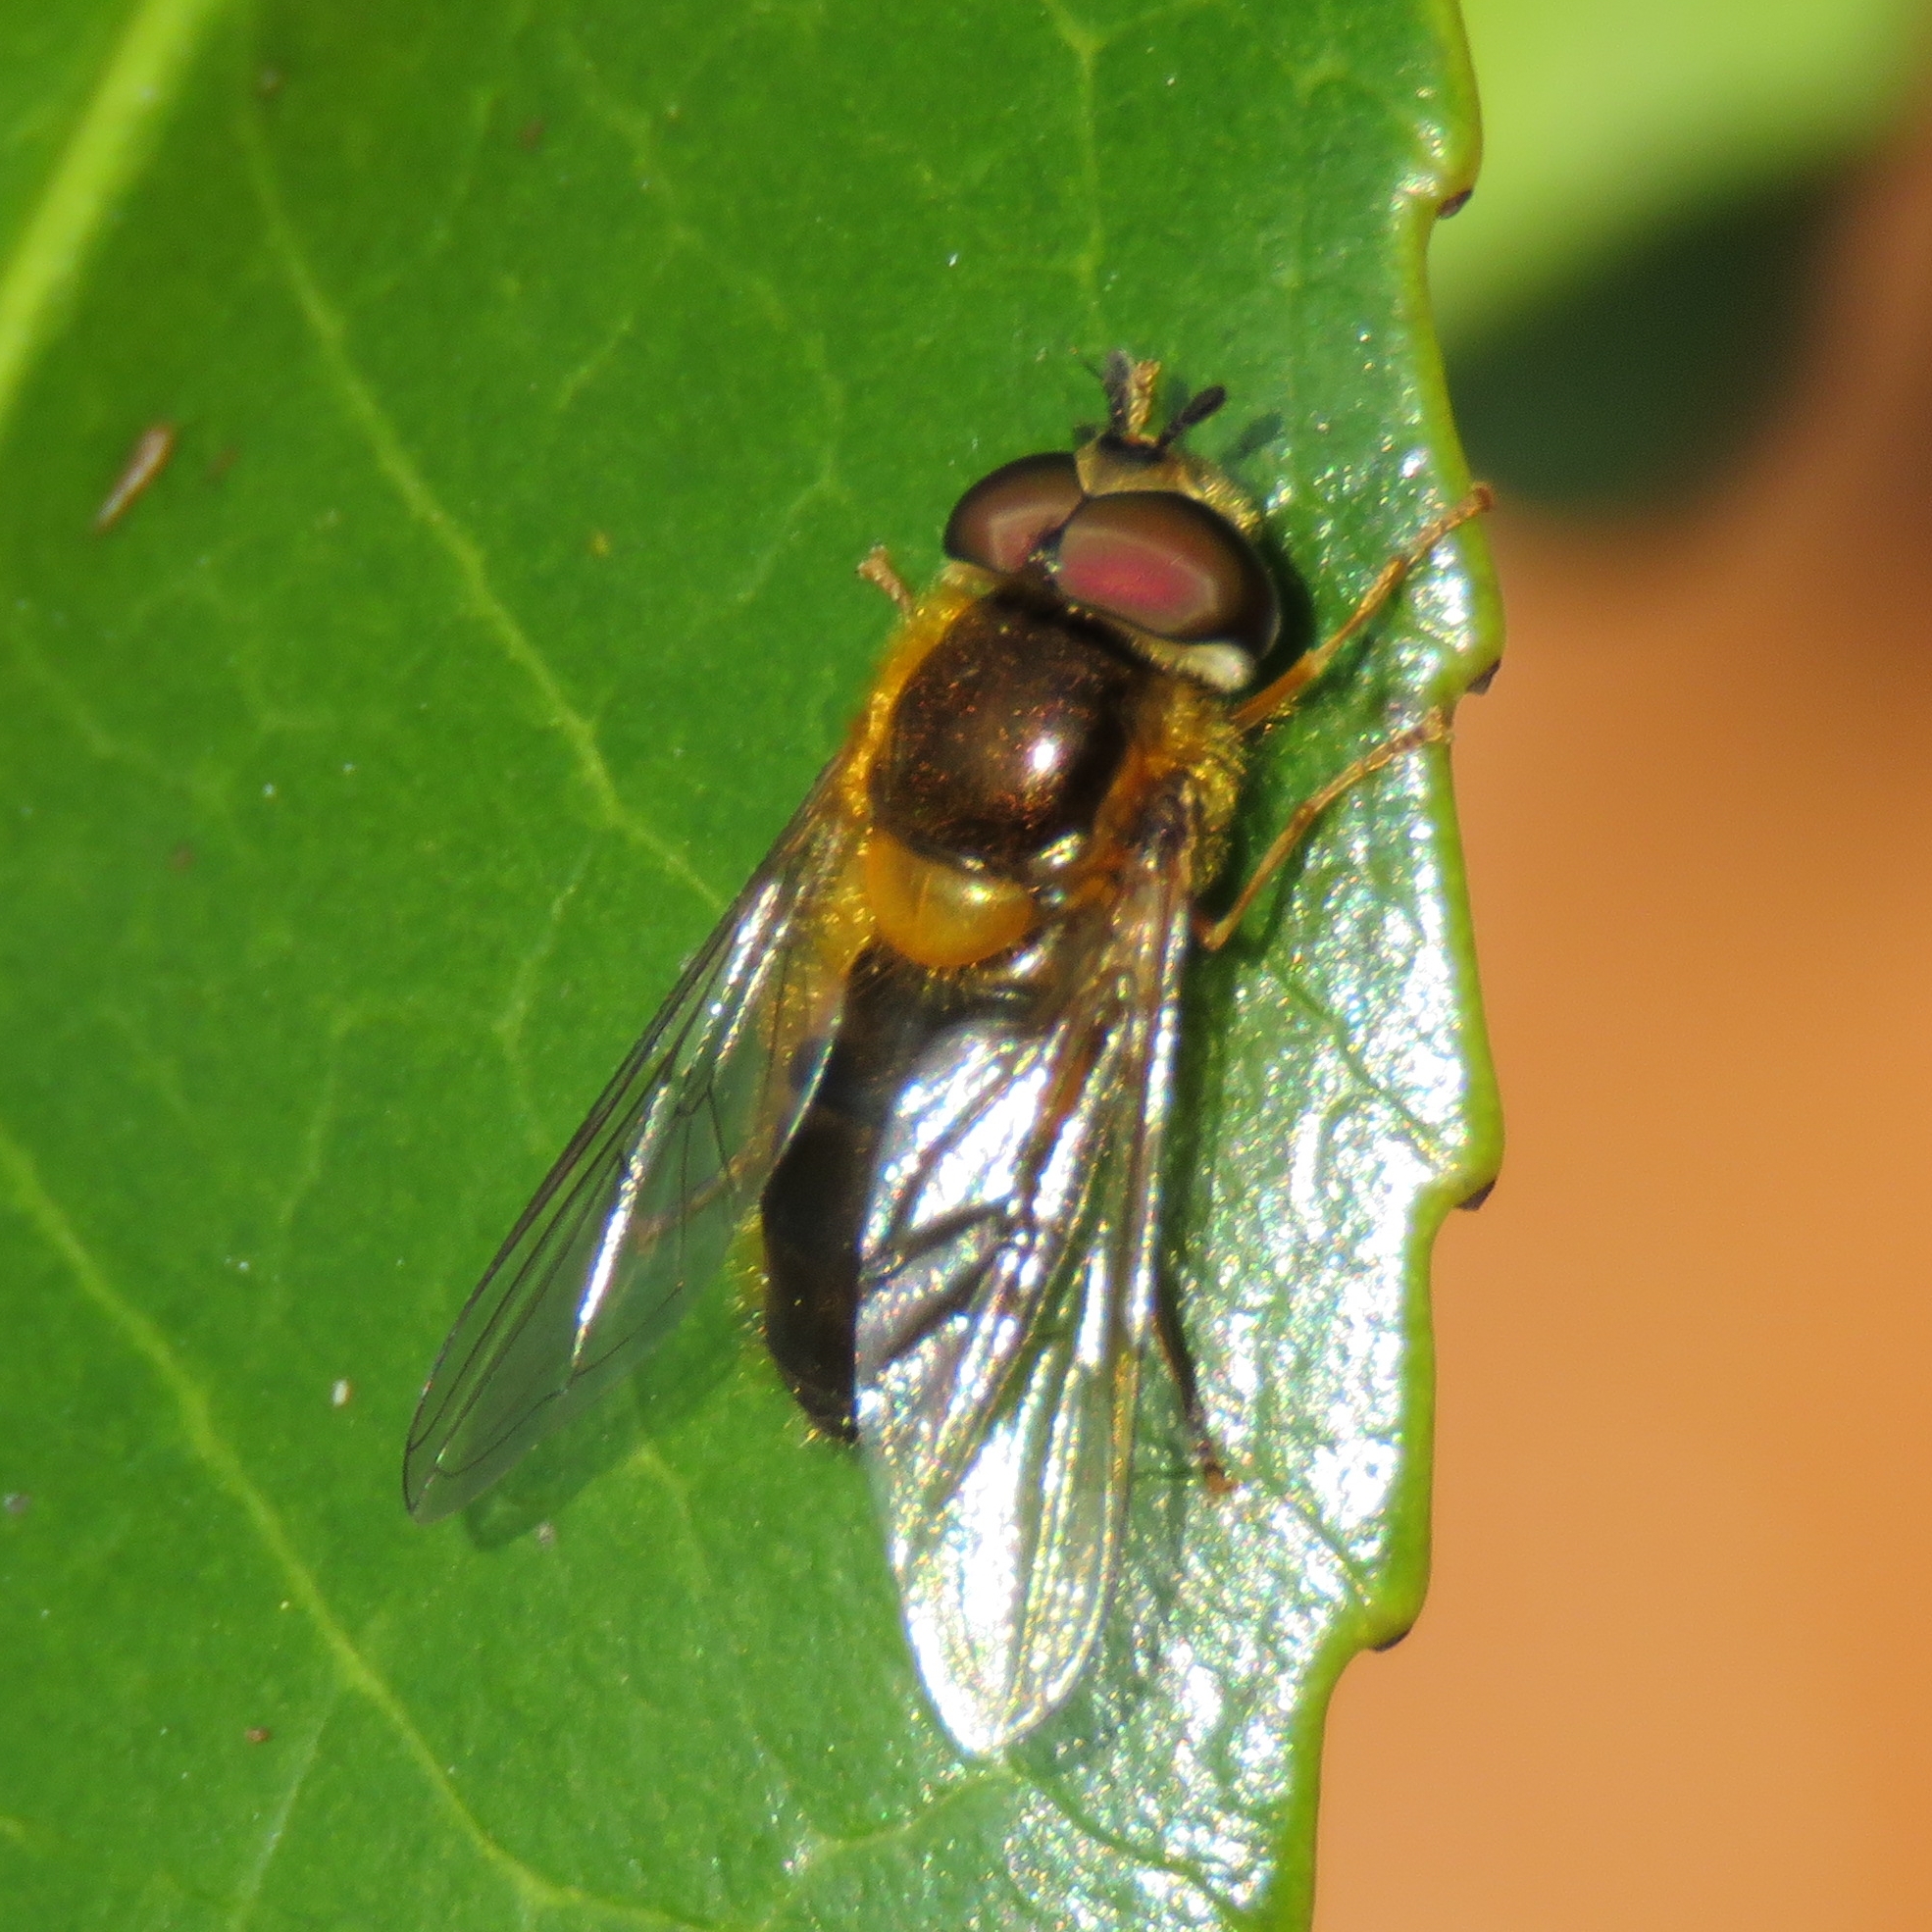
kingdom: Animalia
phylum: Arthropoda
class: Insecta
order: Diptera
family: Syrphidae
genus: Epistrophe
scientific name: Epistrophe eligans
